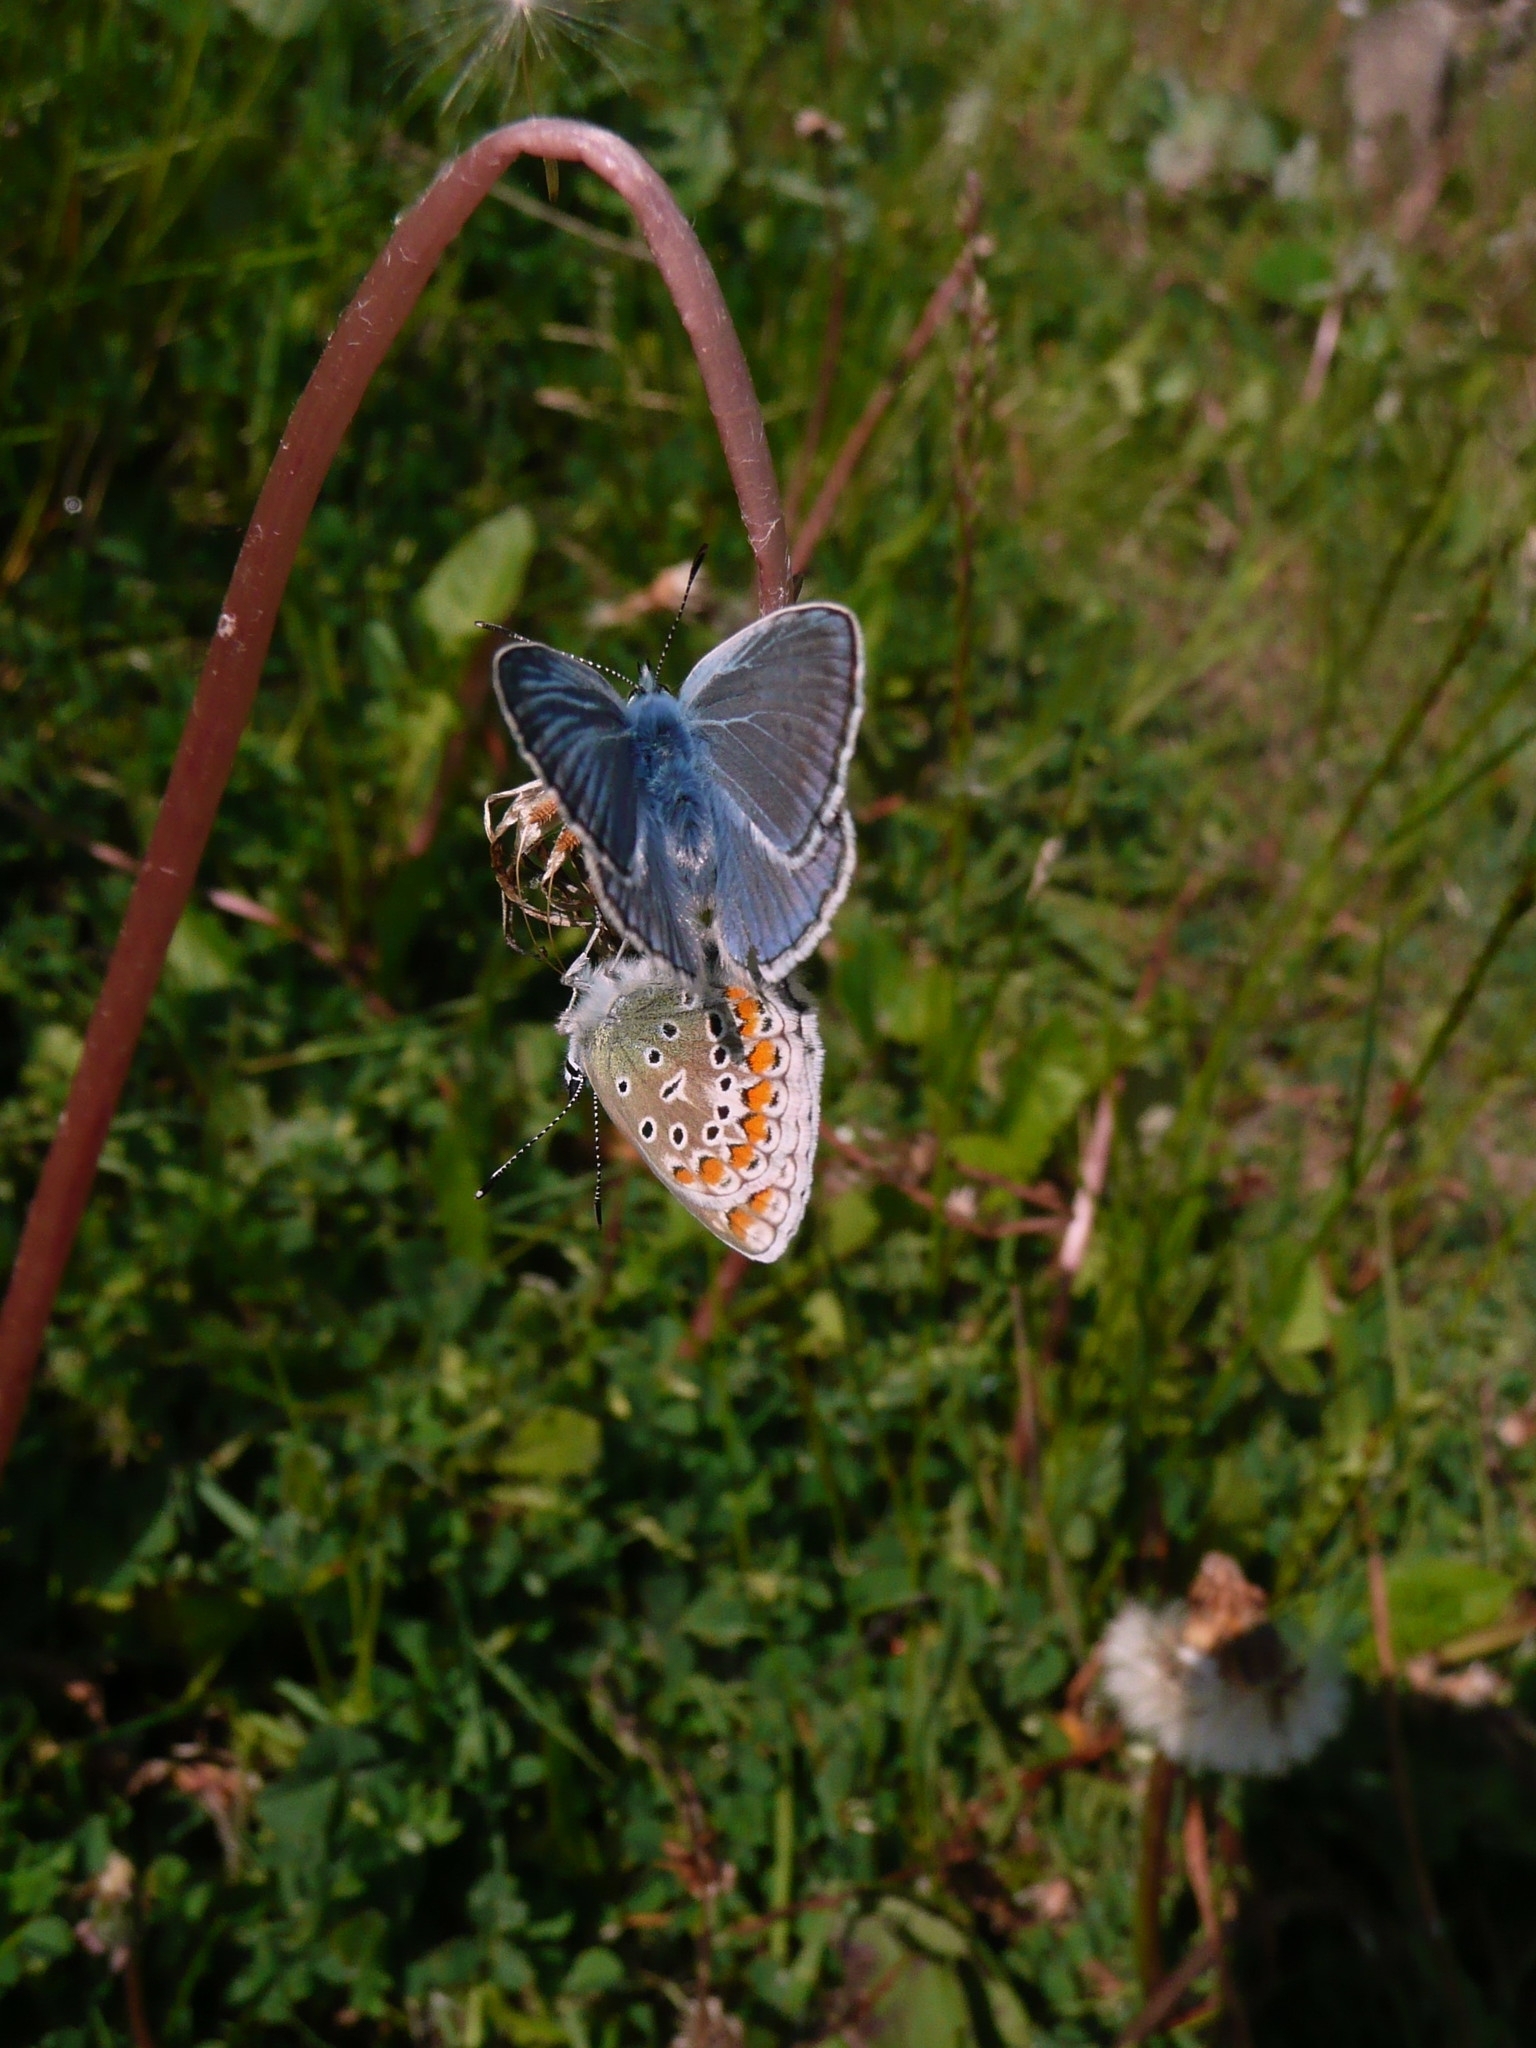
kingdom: Animalia
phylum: Arthropoda
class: Insecta
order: Lepidoptera
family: Lycaenidae
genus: Polyommatus
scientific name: Polyommatus icarus
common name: Common blue
